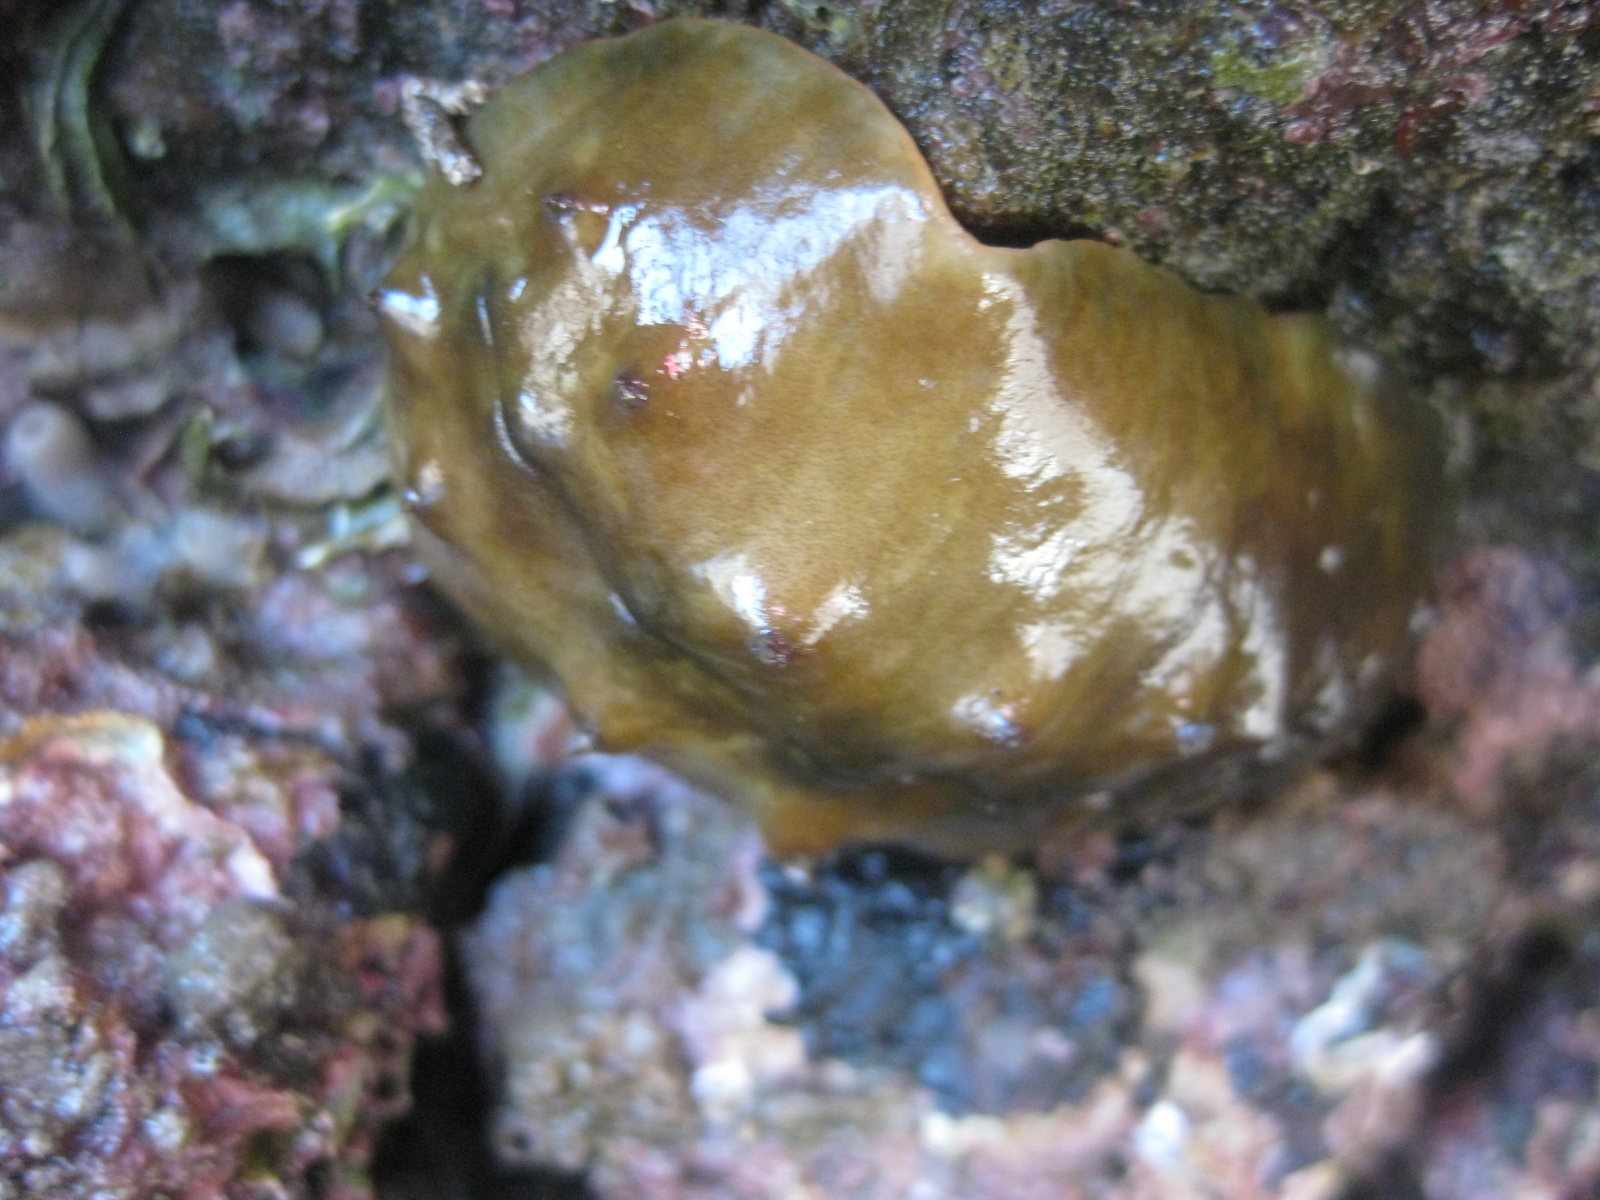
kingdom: Animalia
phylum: Mollusca
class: Polyplacophora
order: Chitonida
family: Acanthochitonidae
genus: Cryptoconchus
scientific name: Cryptoconchus porosus
